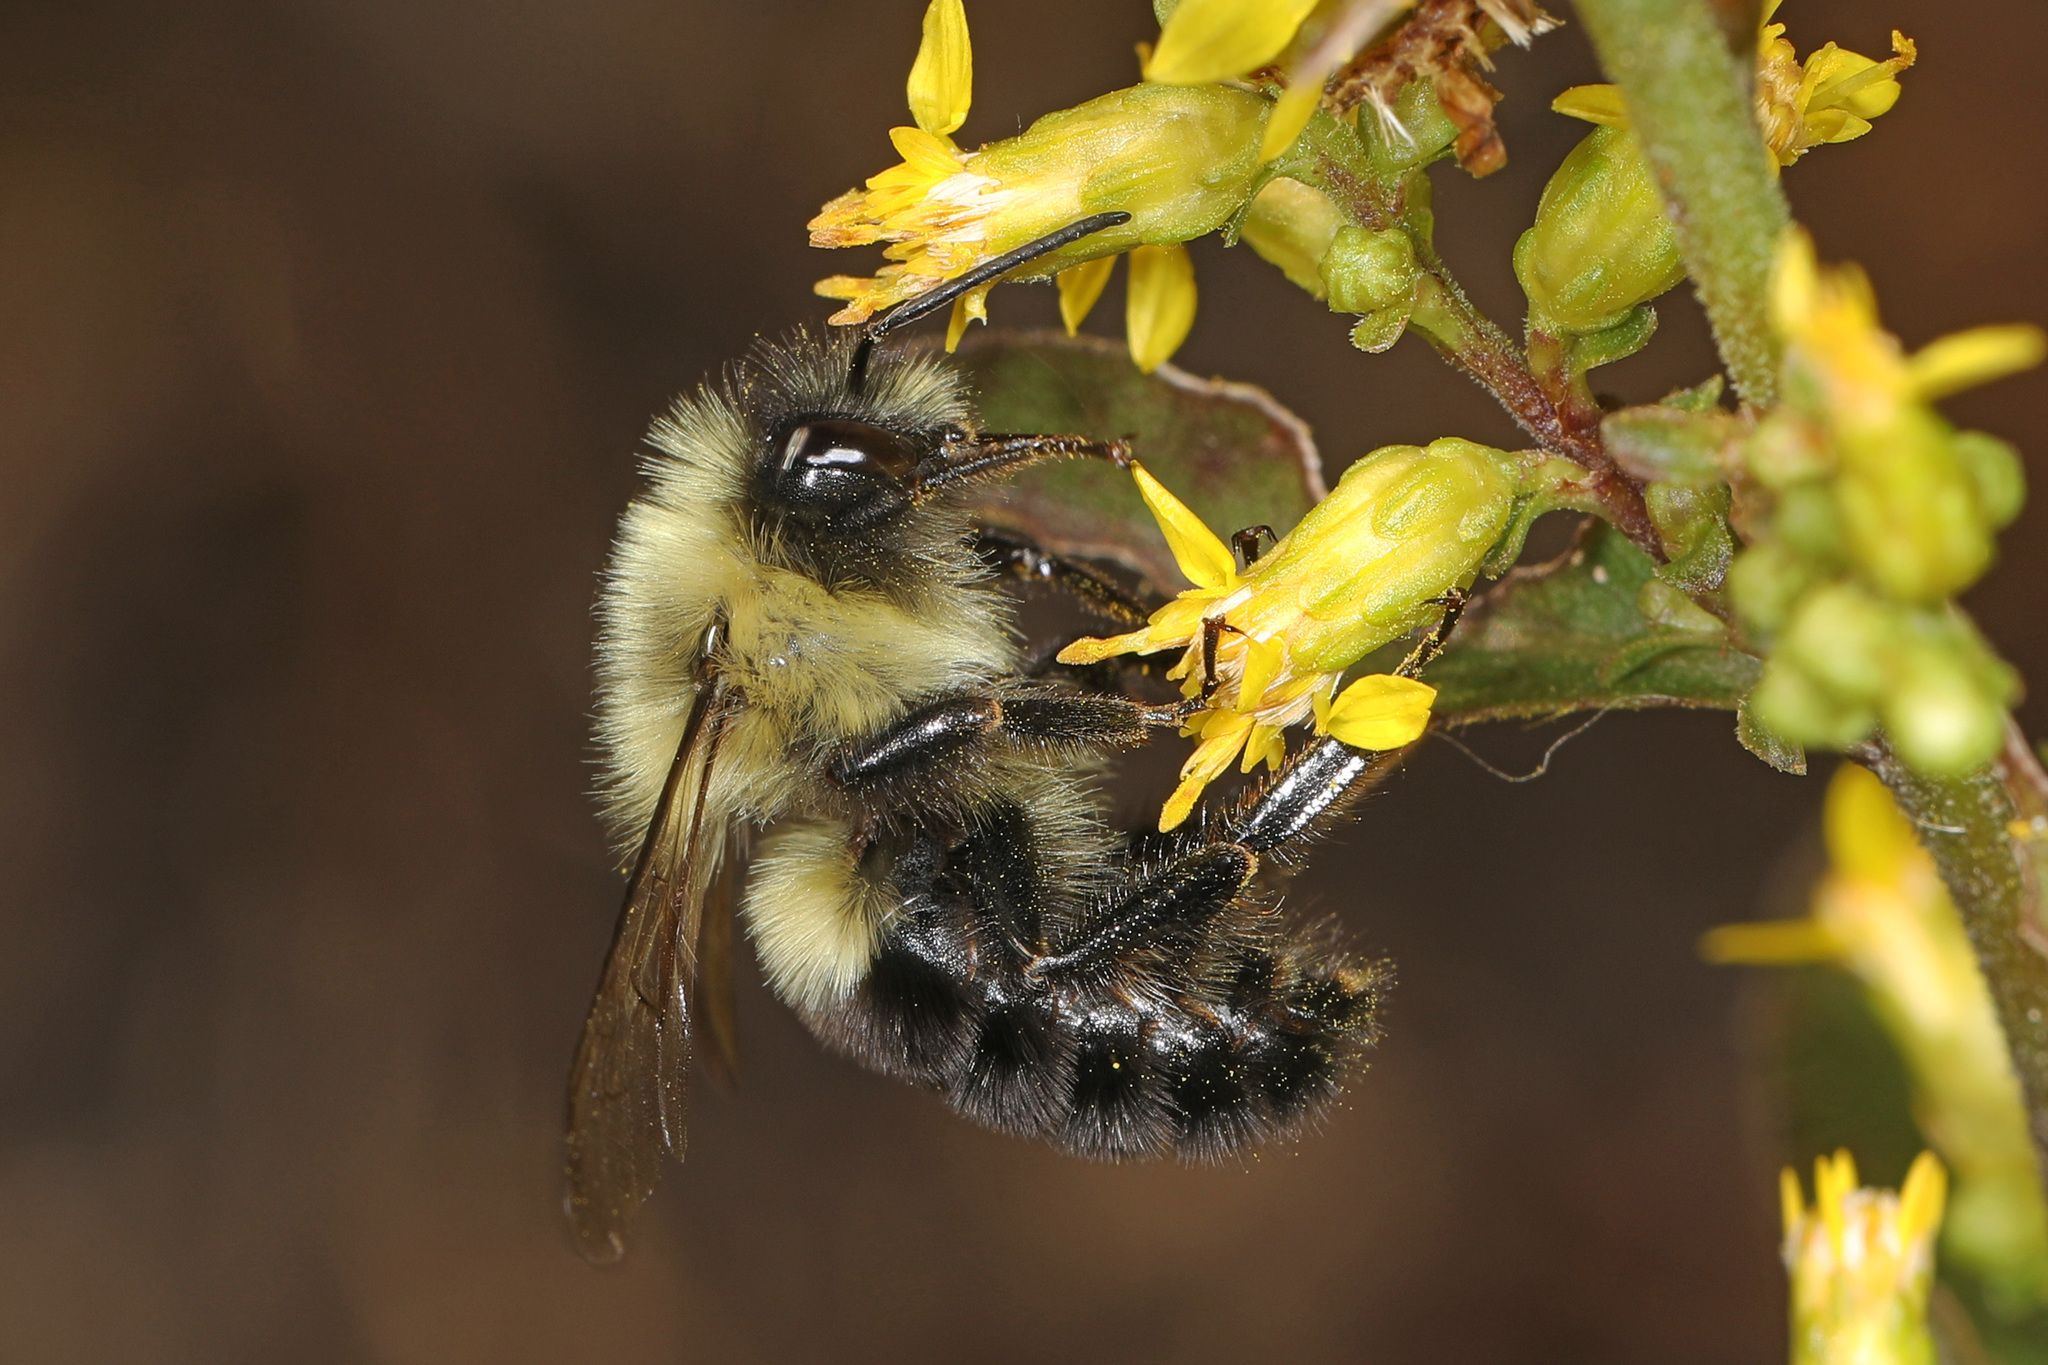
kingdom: Animalia
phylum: Arthropoda
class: Insecta
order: Hymenoptera
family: Apidae
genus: Bombus
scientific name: Bombus impatiens
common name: Common eastern bumble bee
